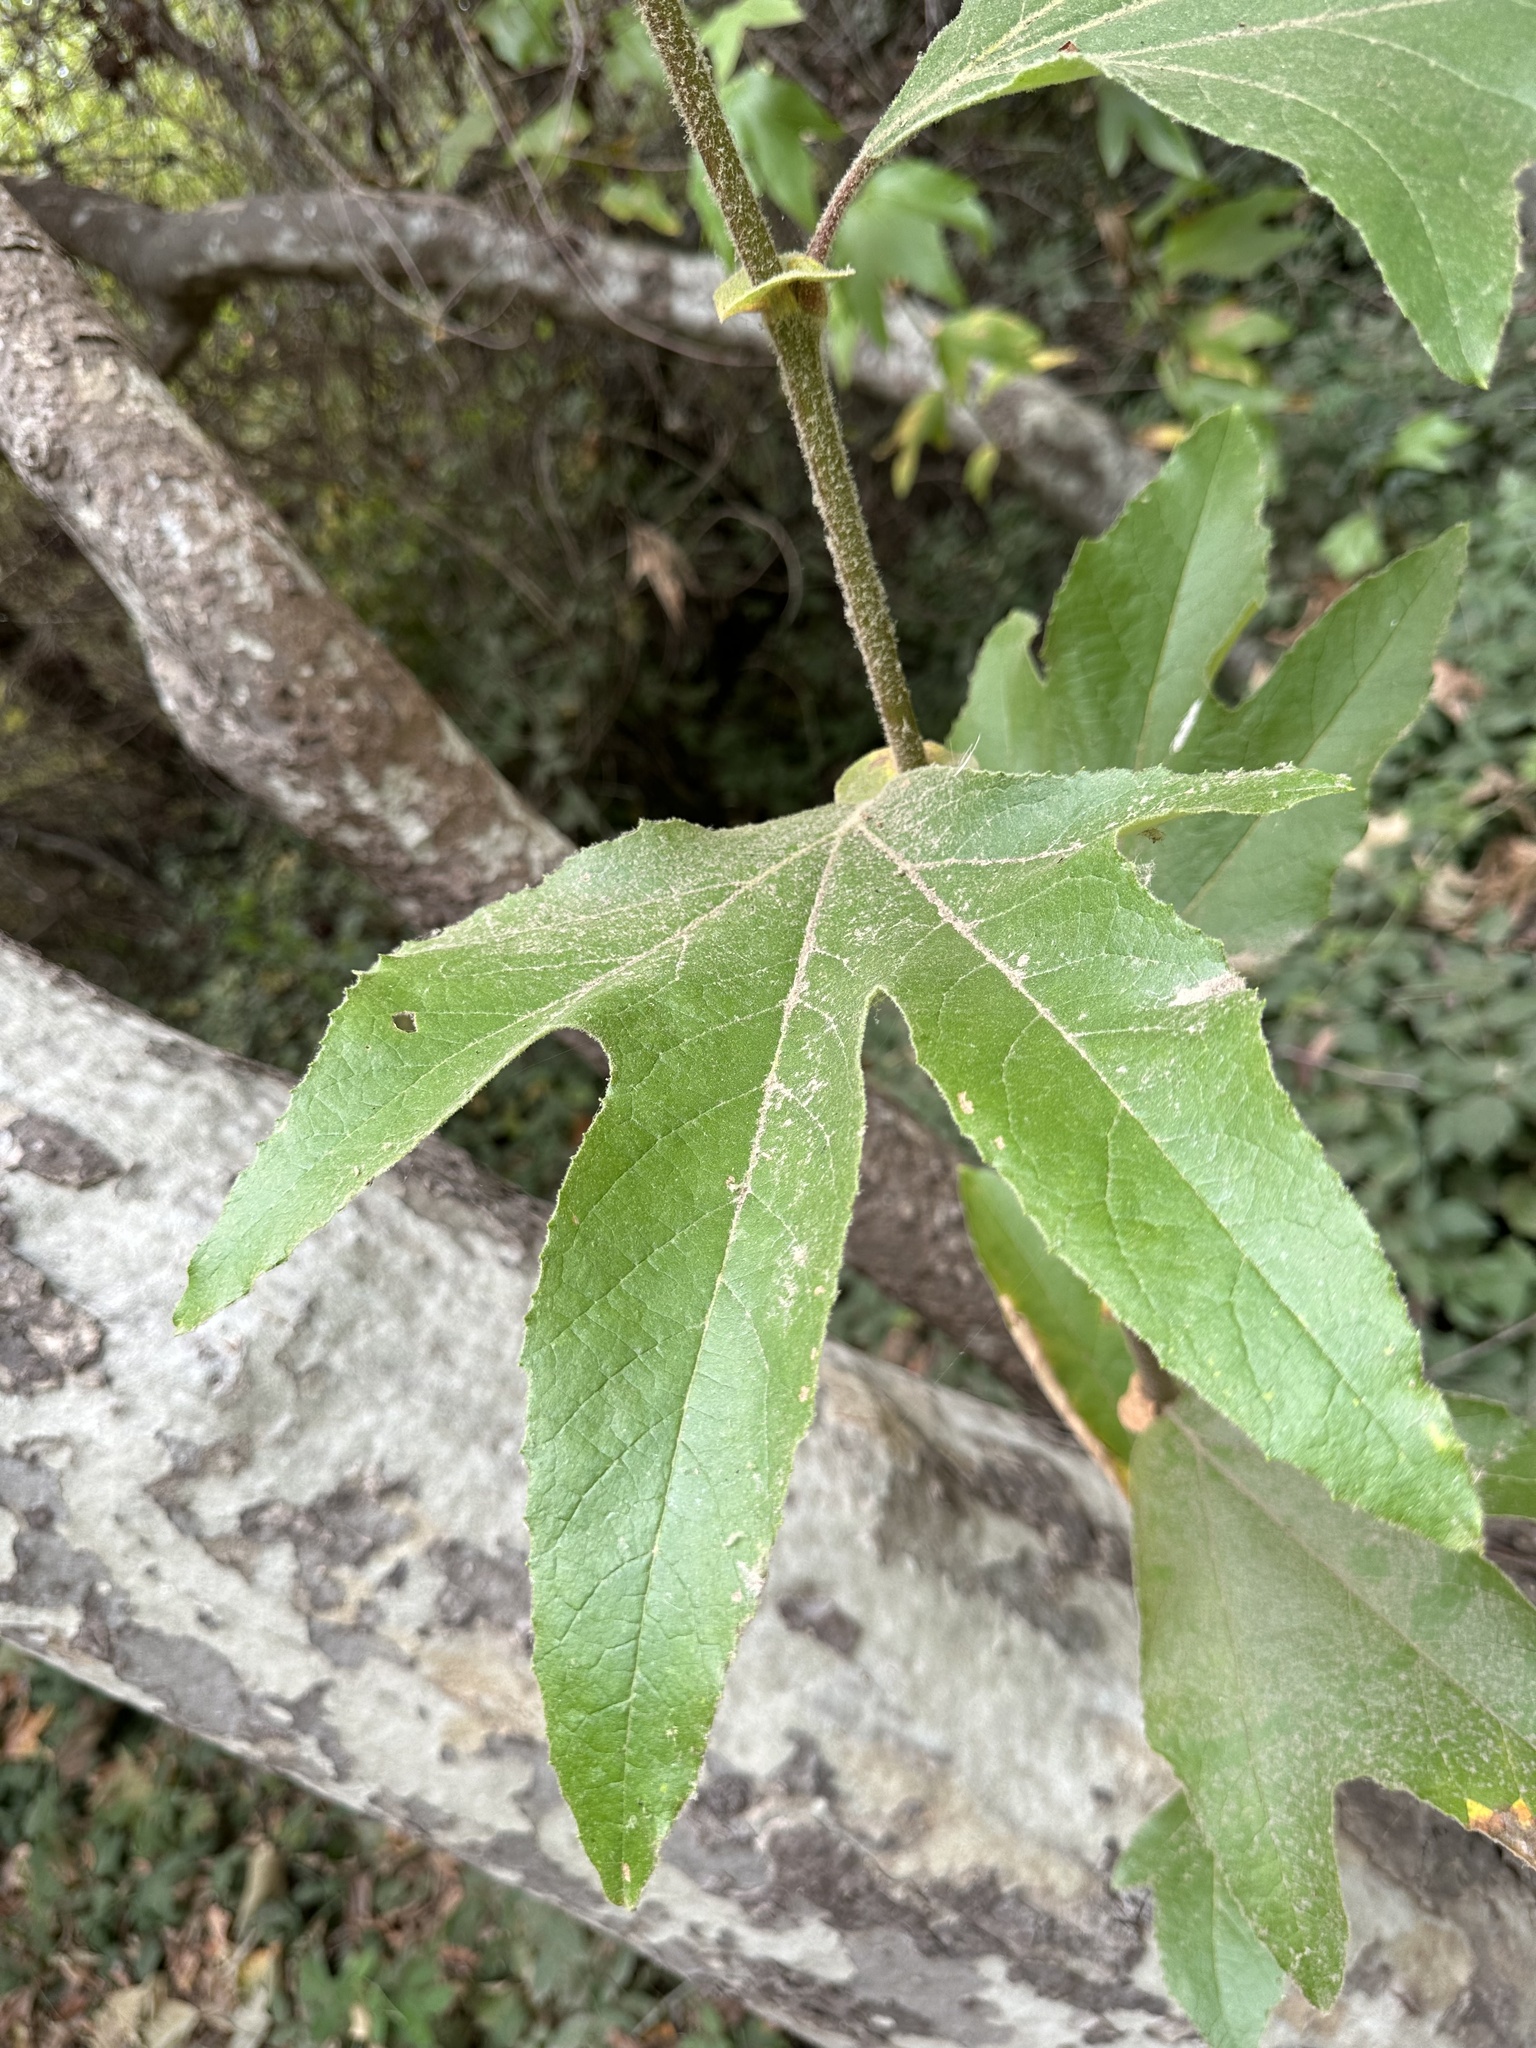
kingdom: Plantae
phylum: Tracheophyta
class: Magnoliopsida
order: Proteales
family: Platanaceae
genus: Platanus
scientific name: Platanus racemosa
